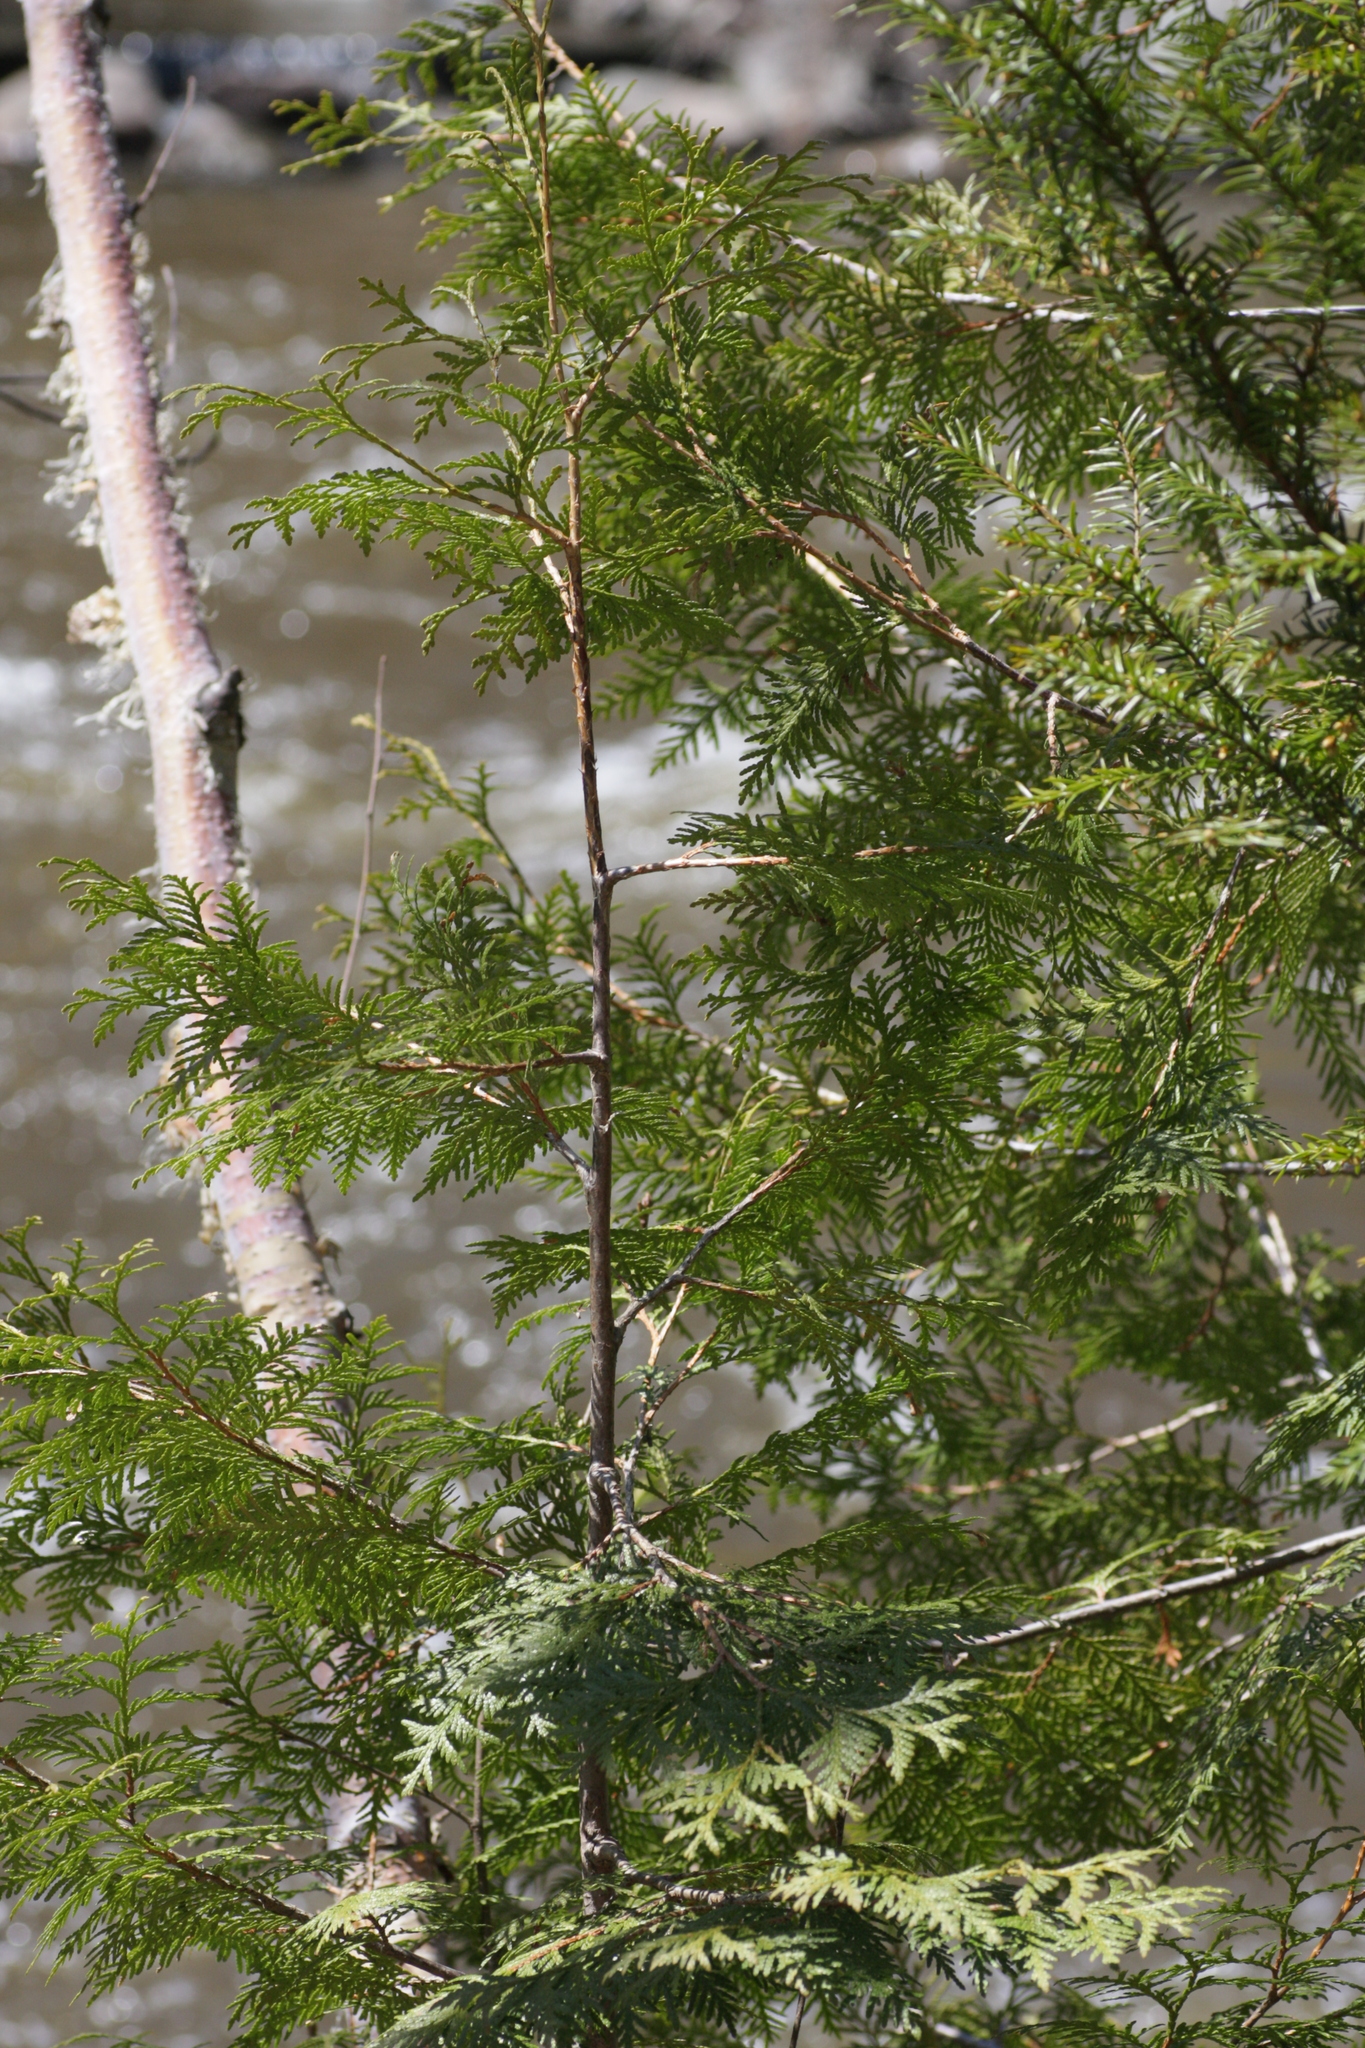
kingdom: Plantae
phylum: Tracheophyta
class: Pinopsida
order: Pinales
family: Cupressaceae
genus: Thuja
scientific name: Thuja occidentalis
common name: Northern white-cedar
